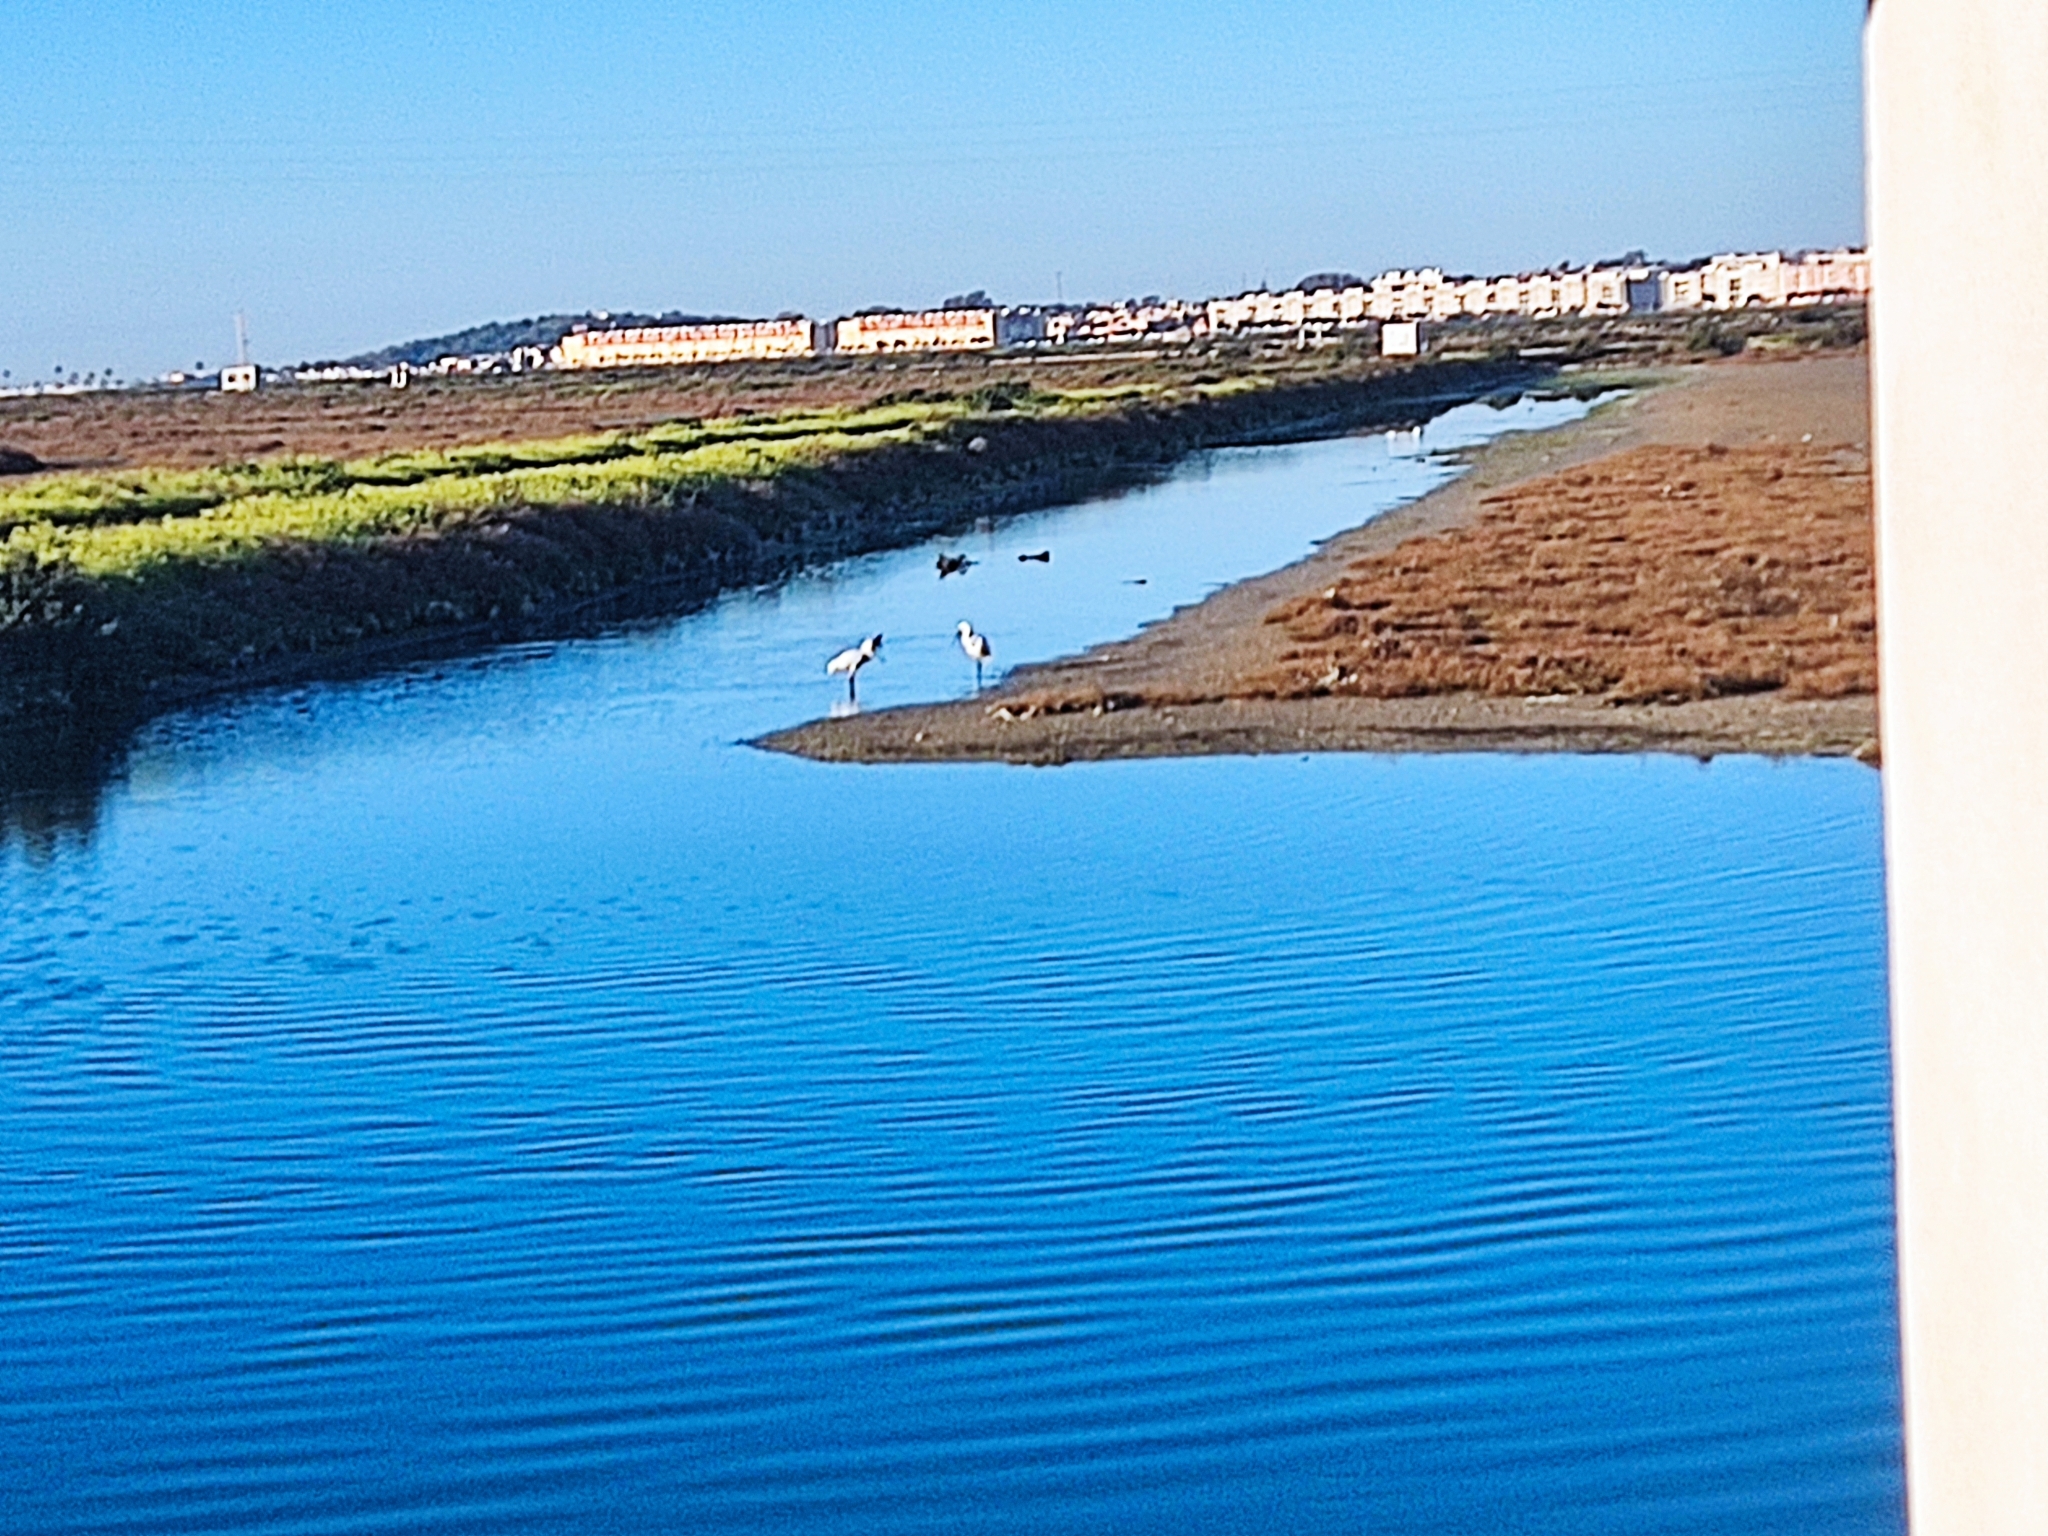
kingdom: Animalia
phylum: Chordata
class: Aves
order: Pelecaniformes
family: Threskiornithidae
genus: Platalea
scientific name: Platalea leucorodia
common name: Eurasian spoonbill
